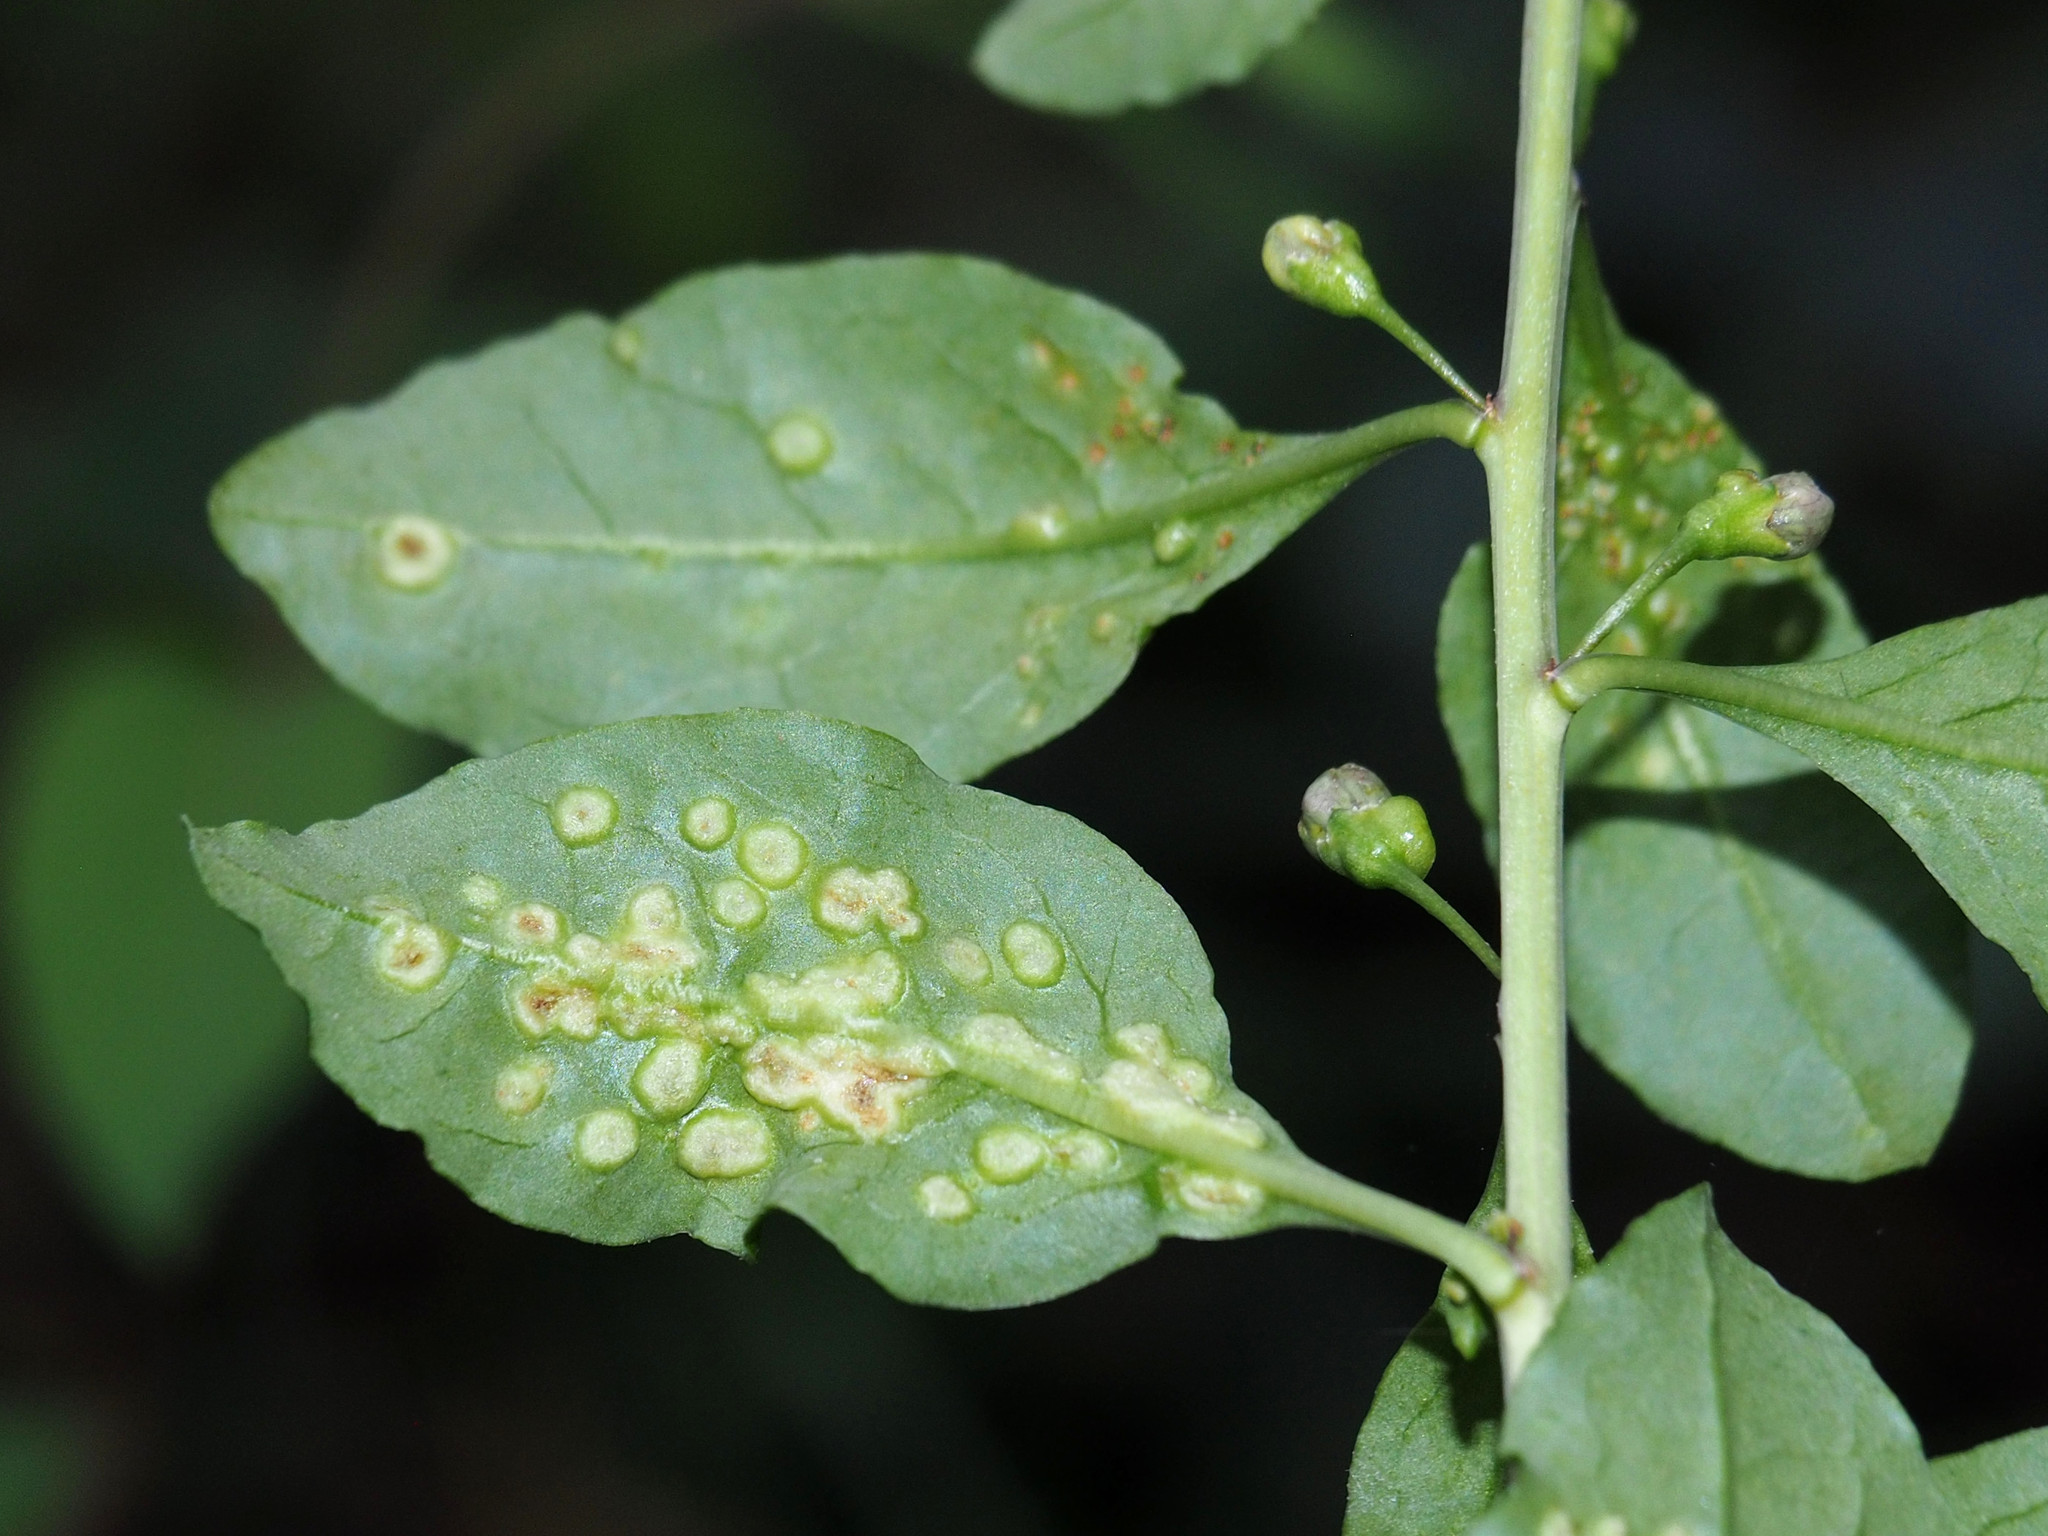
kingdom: Animalia
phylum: Arthropoda
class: Arachnida
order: Trombidiformes
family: Eriophyidae
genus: Aceria
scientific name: Aceria kuko
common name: Goji gall mite
